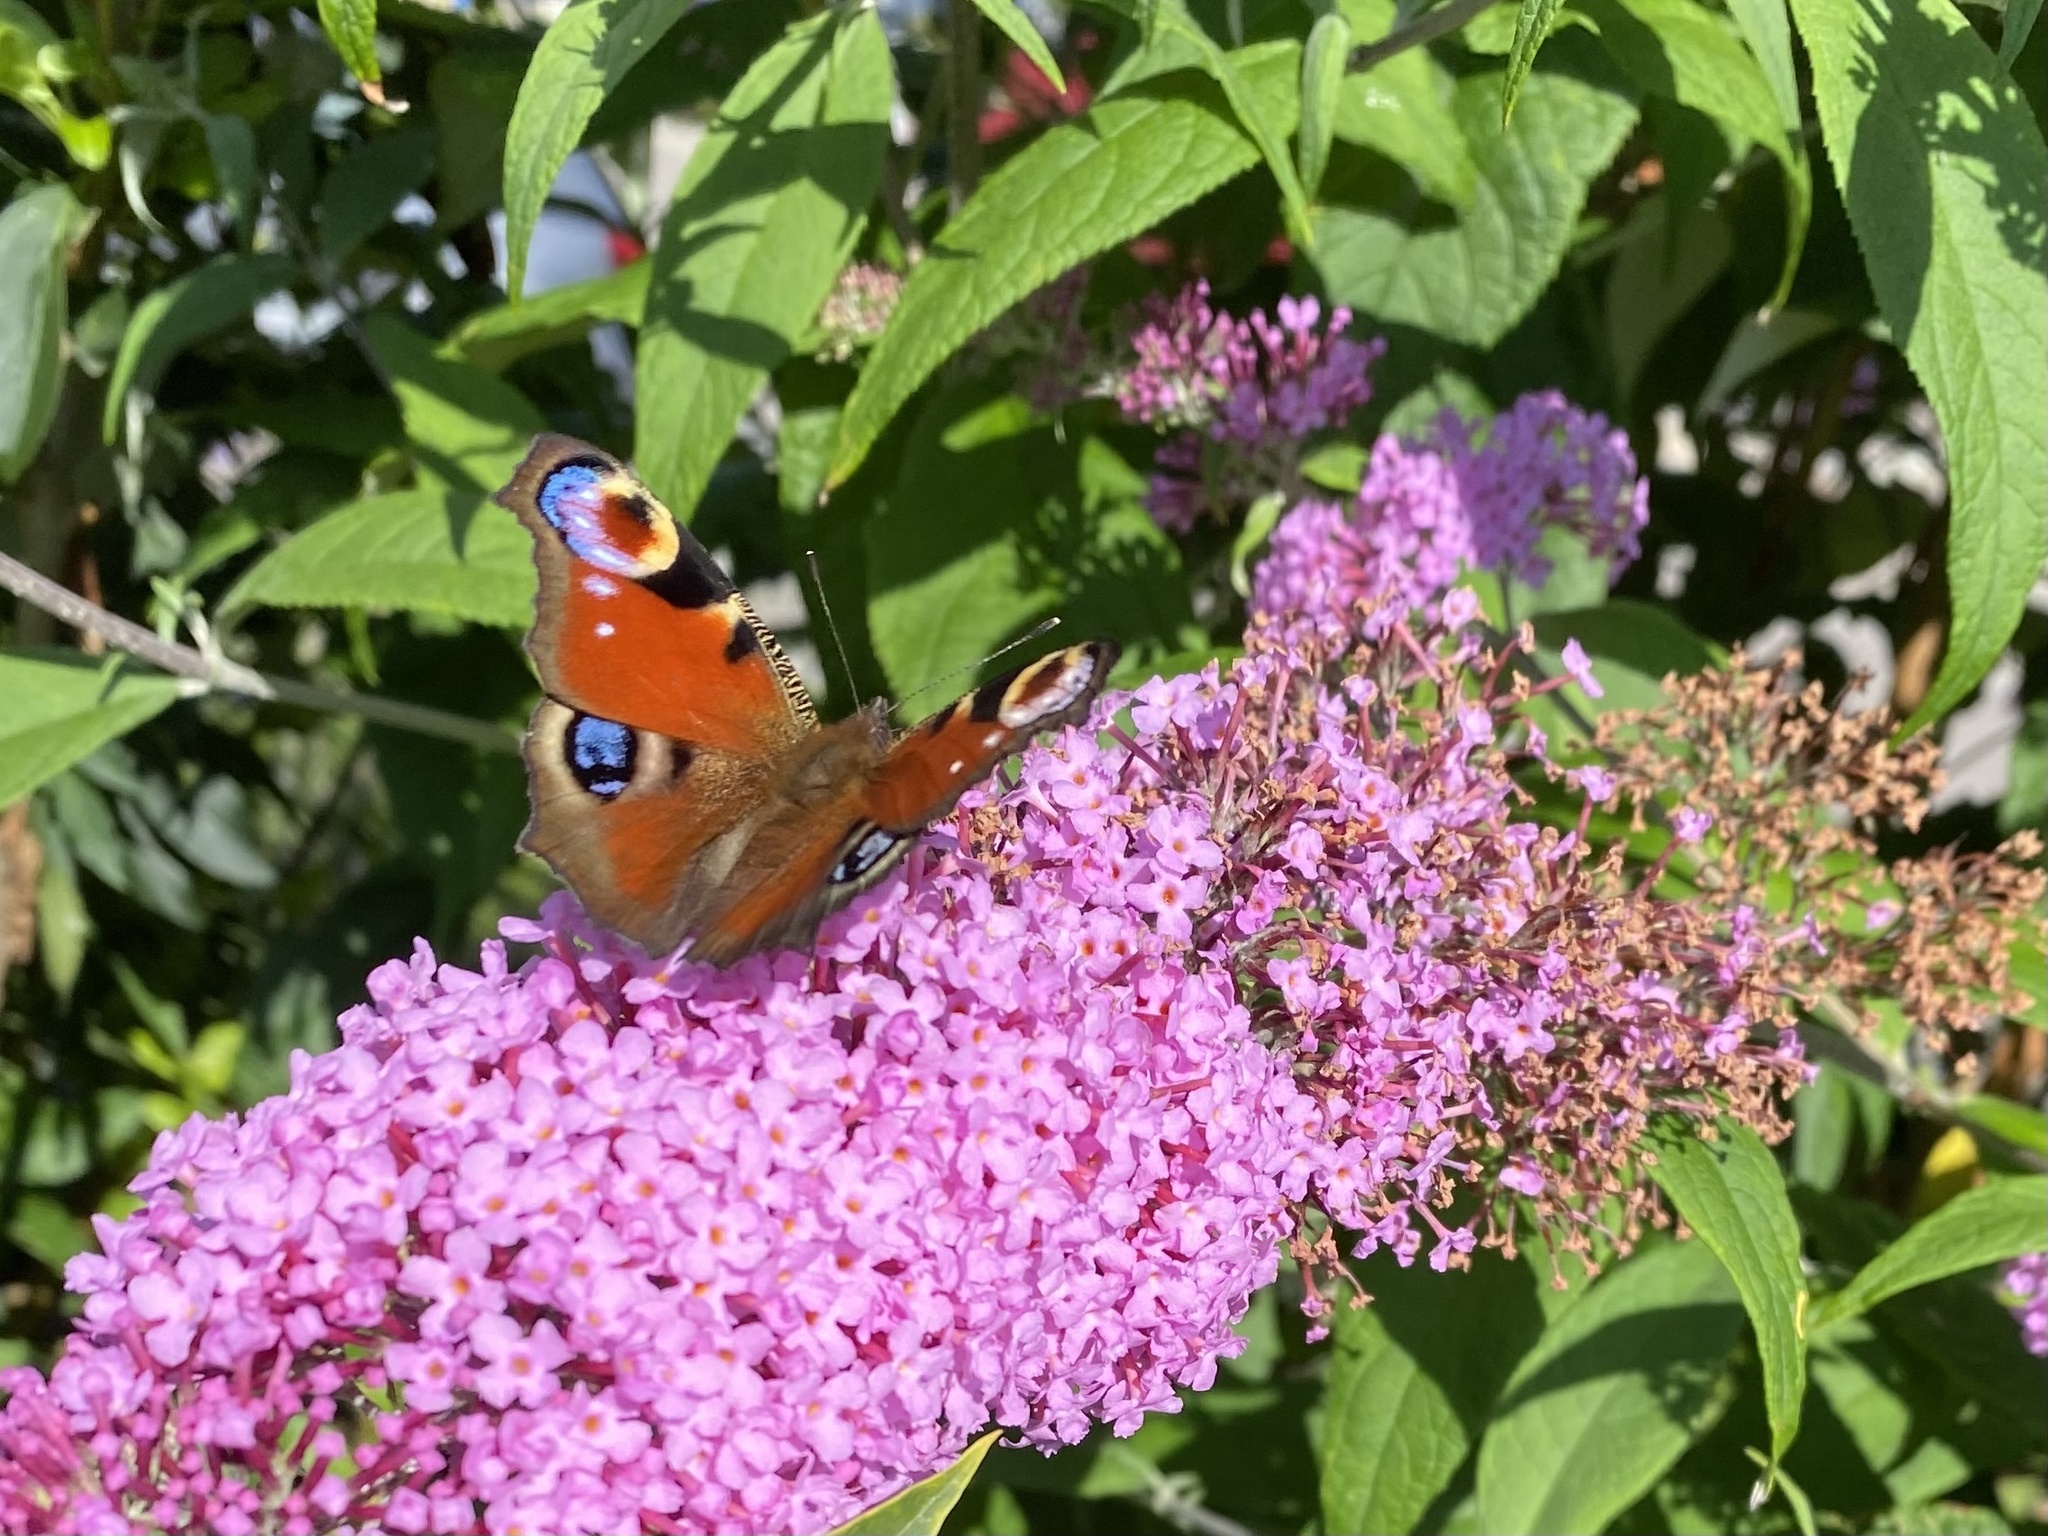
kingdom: Animalia
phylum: Arthropoda
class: Insecta
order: Lepidoptera
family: Nymphalidae
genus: Aglais
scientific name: Aglais io
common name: Peacock
